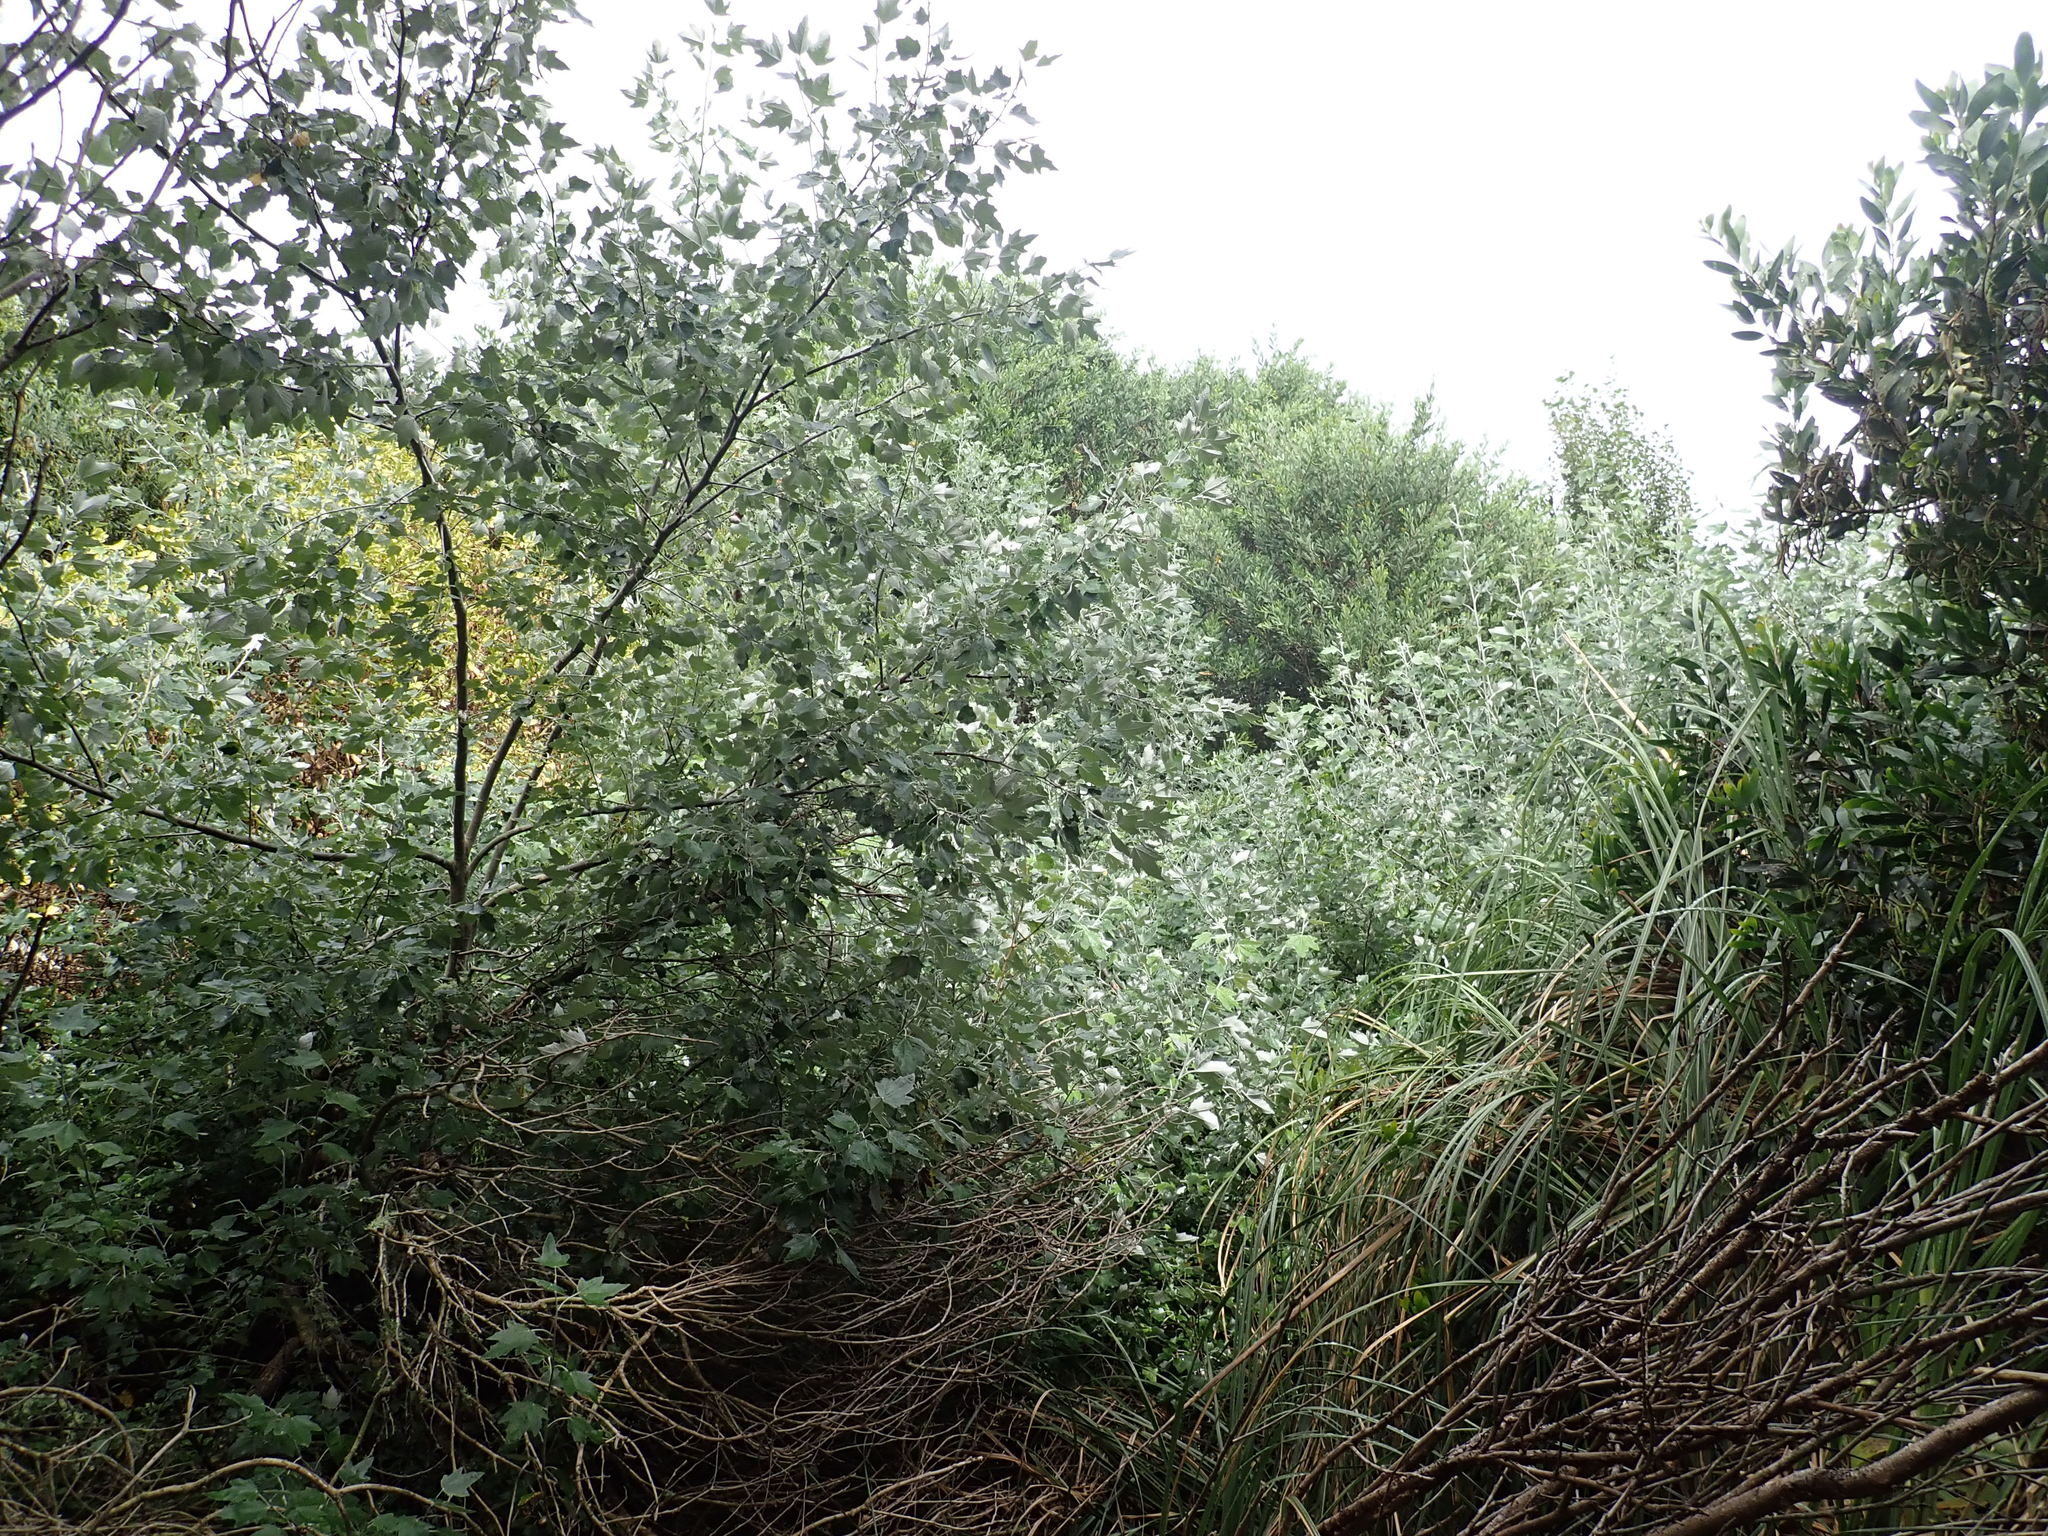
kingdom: Plantae
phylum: Tracheophyta
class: Magnoliopsida
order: Malpighiales
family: Salicaceae
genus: Populus
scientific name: Populus alba
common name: White poplar
